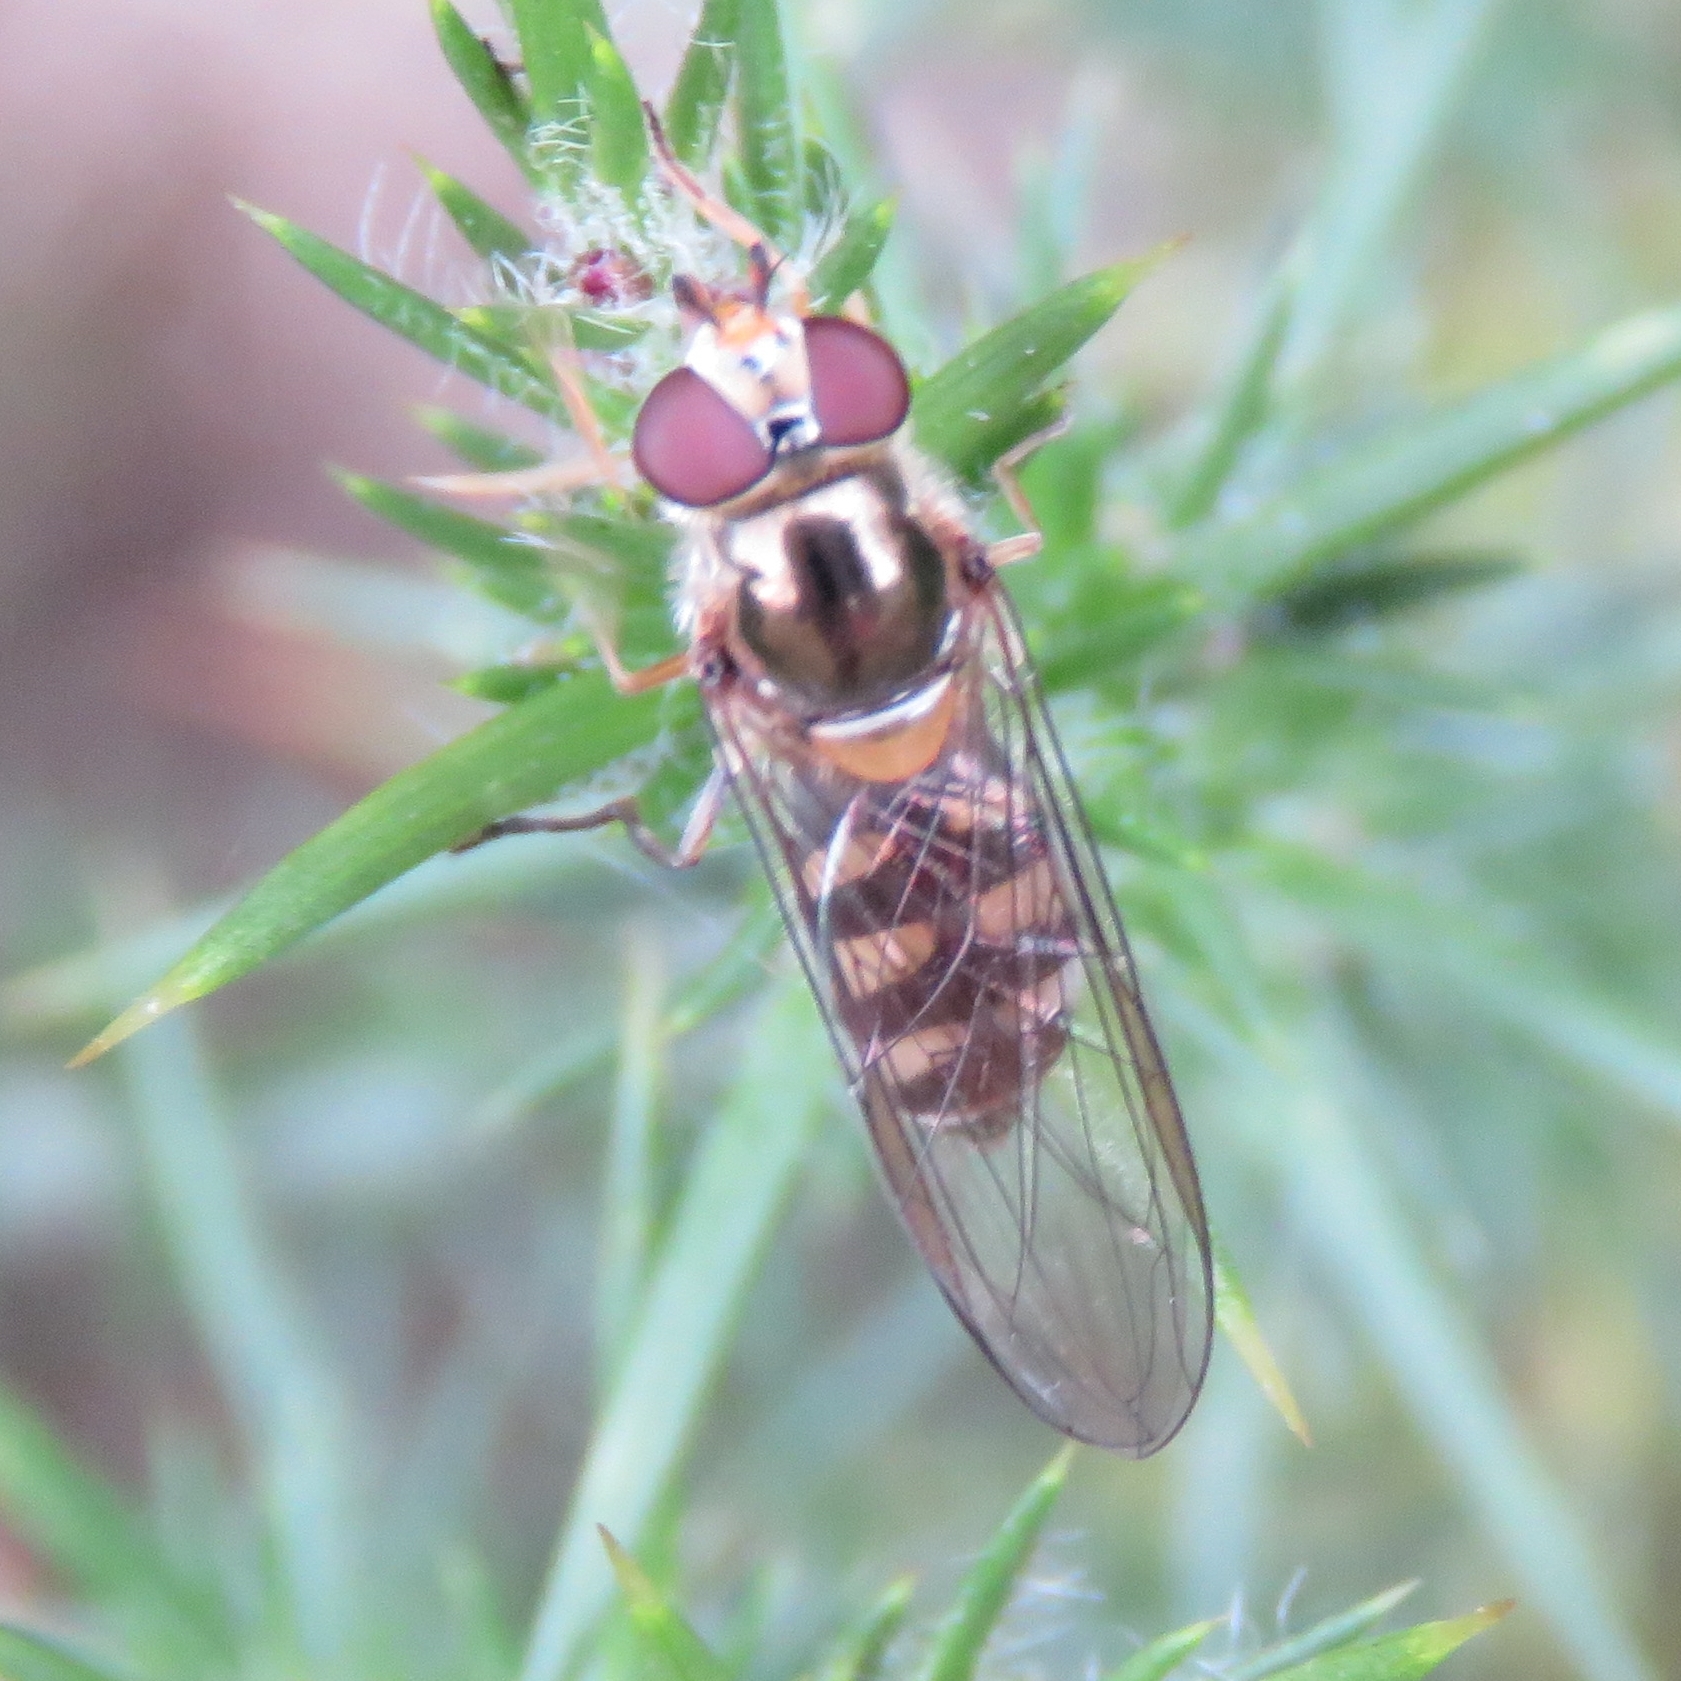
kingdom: Animalia
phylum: Arthropoda
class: Insecta
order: Diptera
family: Syrphidae
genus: Meliscaeva
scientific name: Meliscaeva auricollis
